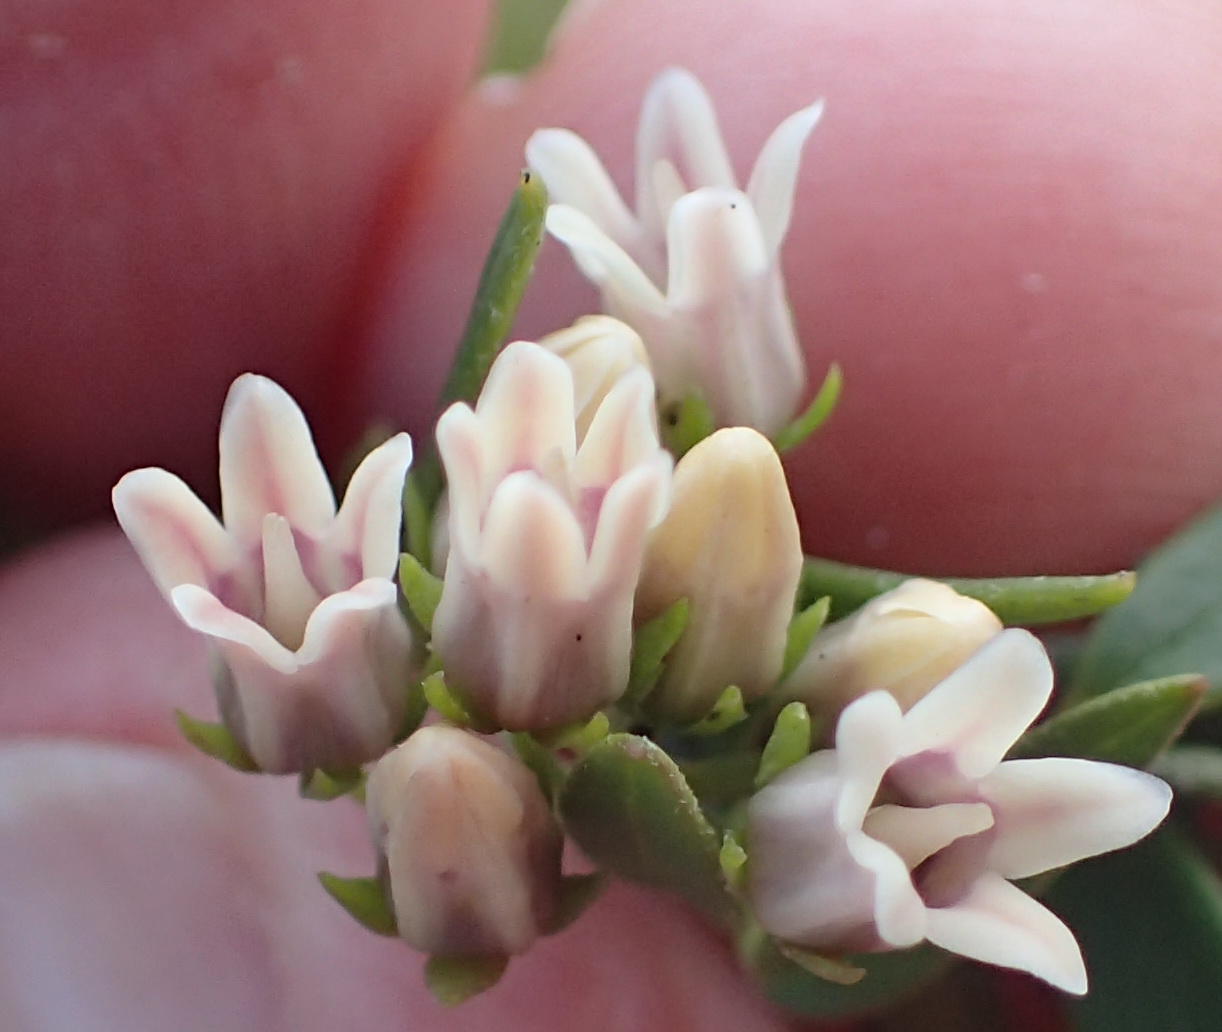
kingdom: Plantae
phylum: Tracheophyta
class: Magnoliopsida
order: Gentianales
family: Apocynaceae
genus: Astephanus
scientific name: Astephanus triflorus
